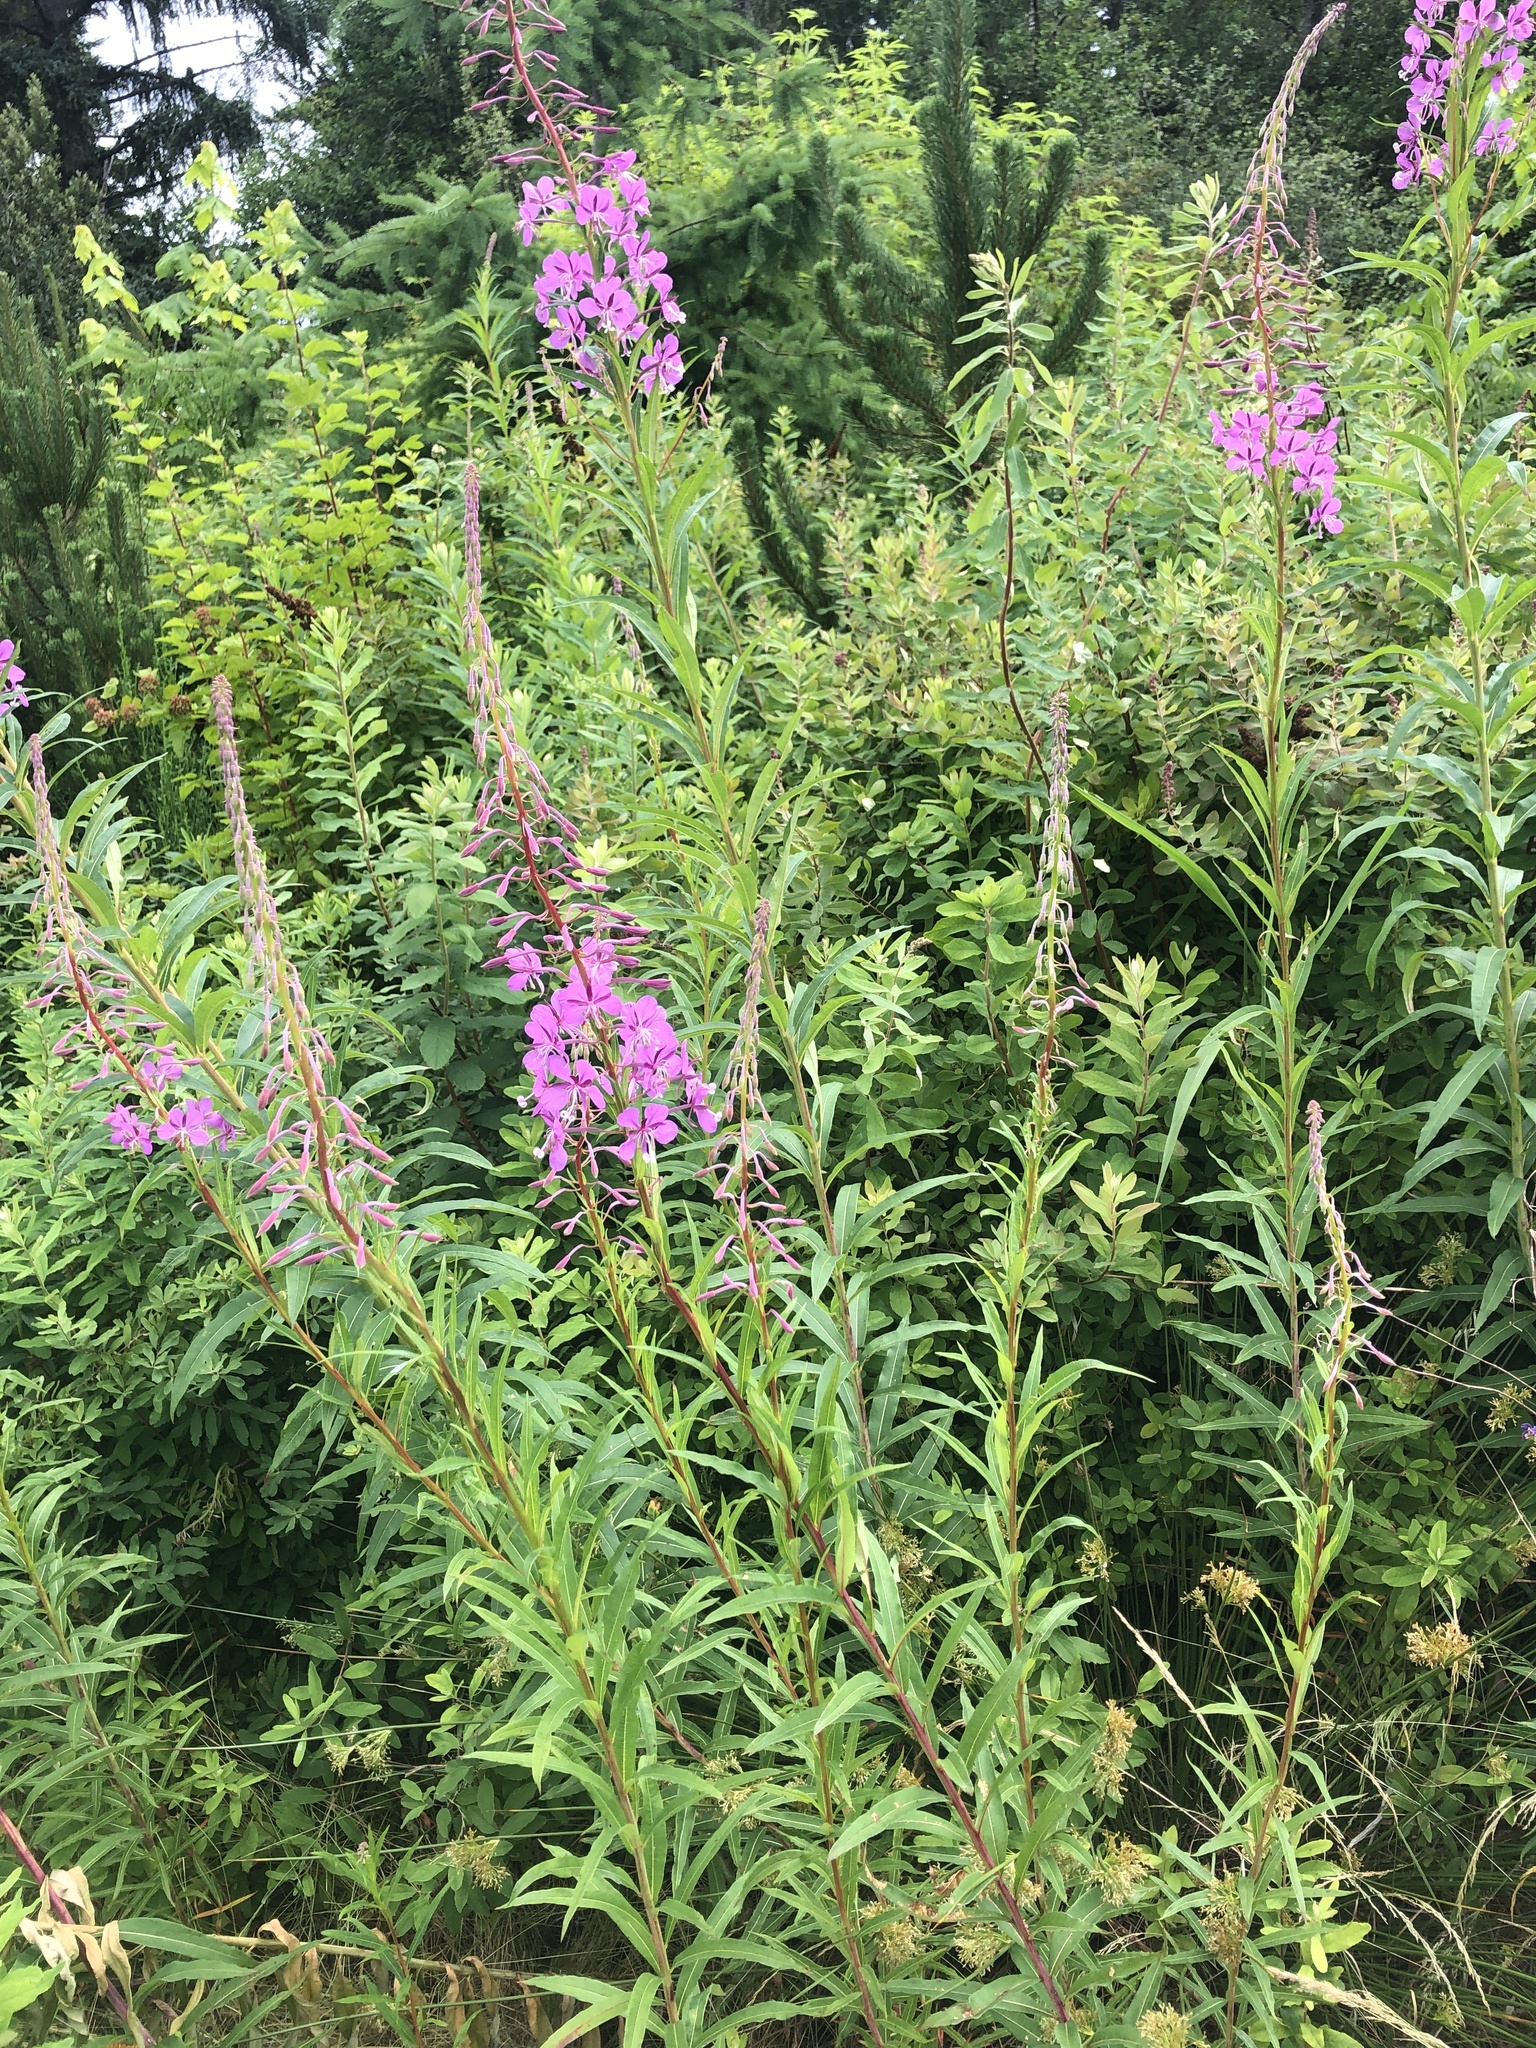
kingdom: Plantae
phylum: Tracheophyta
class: Magnoliopsida
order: Myrtales
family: Onagraceae
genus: Chamaenerion
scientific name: Chamaenerion angustifolium
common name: Fireweed
